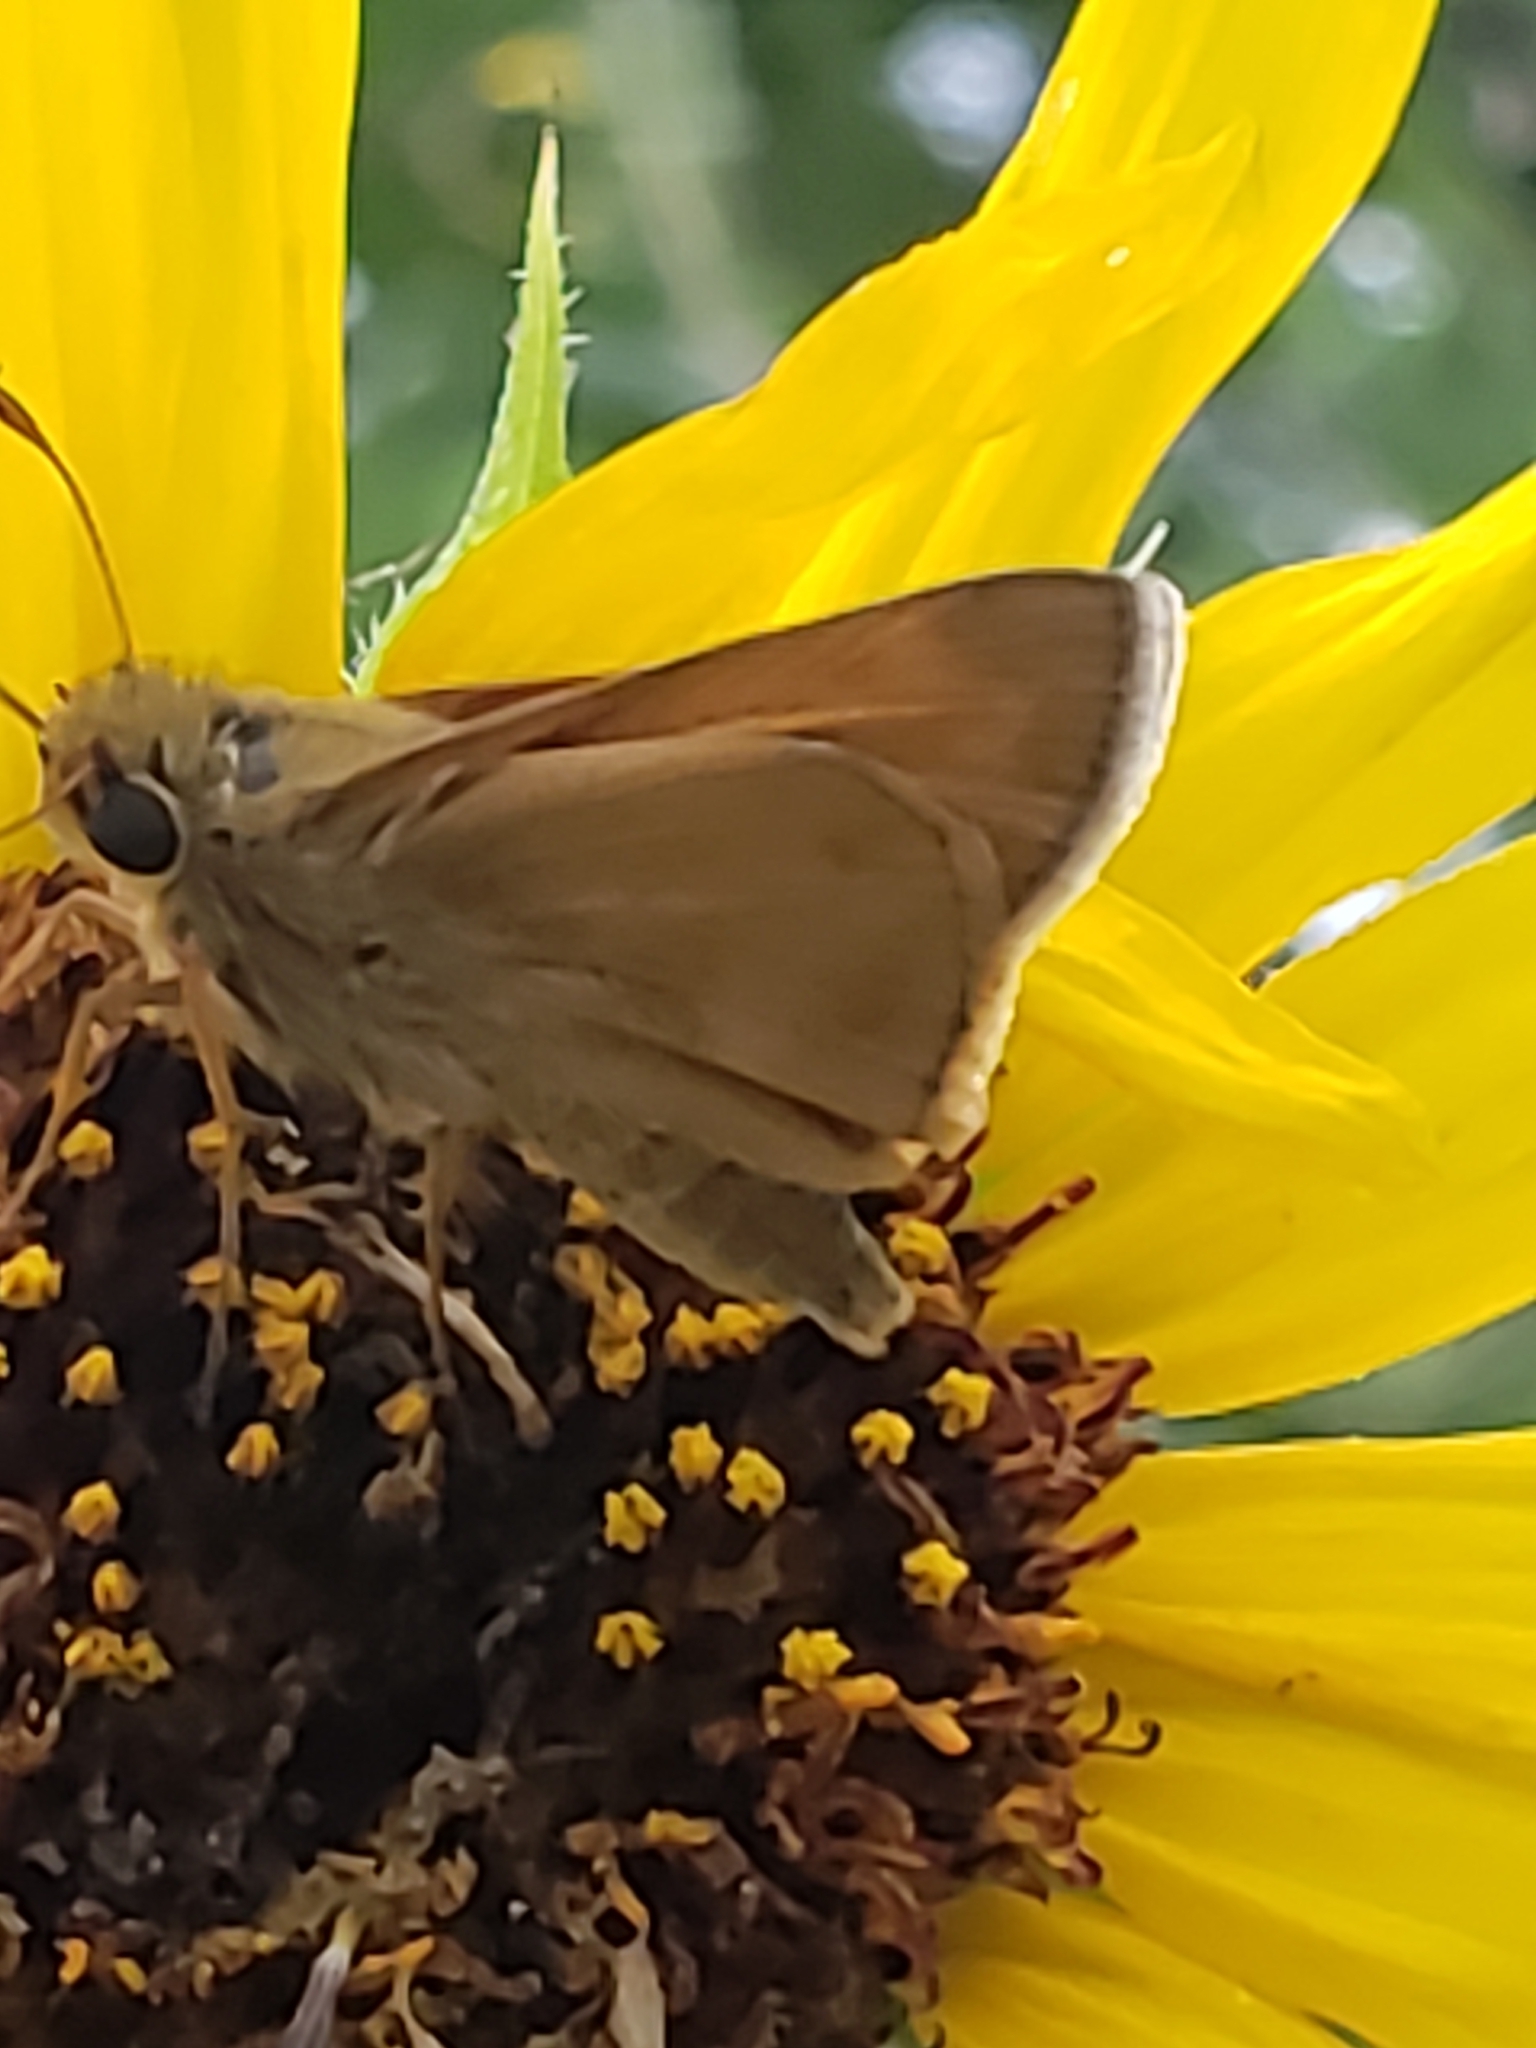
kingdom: Animalia
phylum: Arthropoda
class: Insecta
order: Lepidoptera
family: Hesperiidae
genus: Atalopedes
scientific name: Atalopedes
